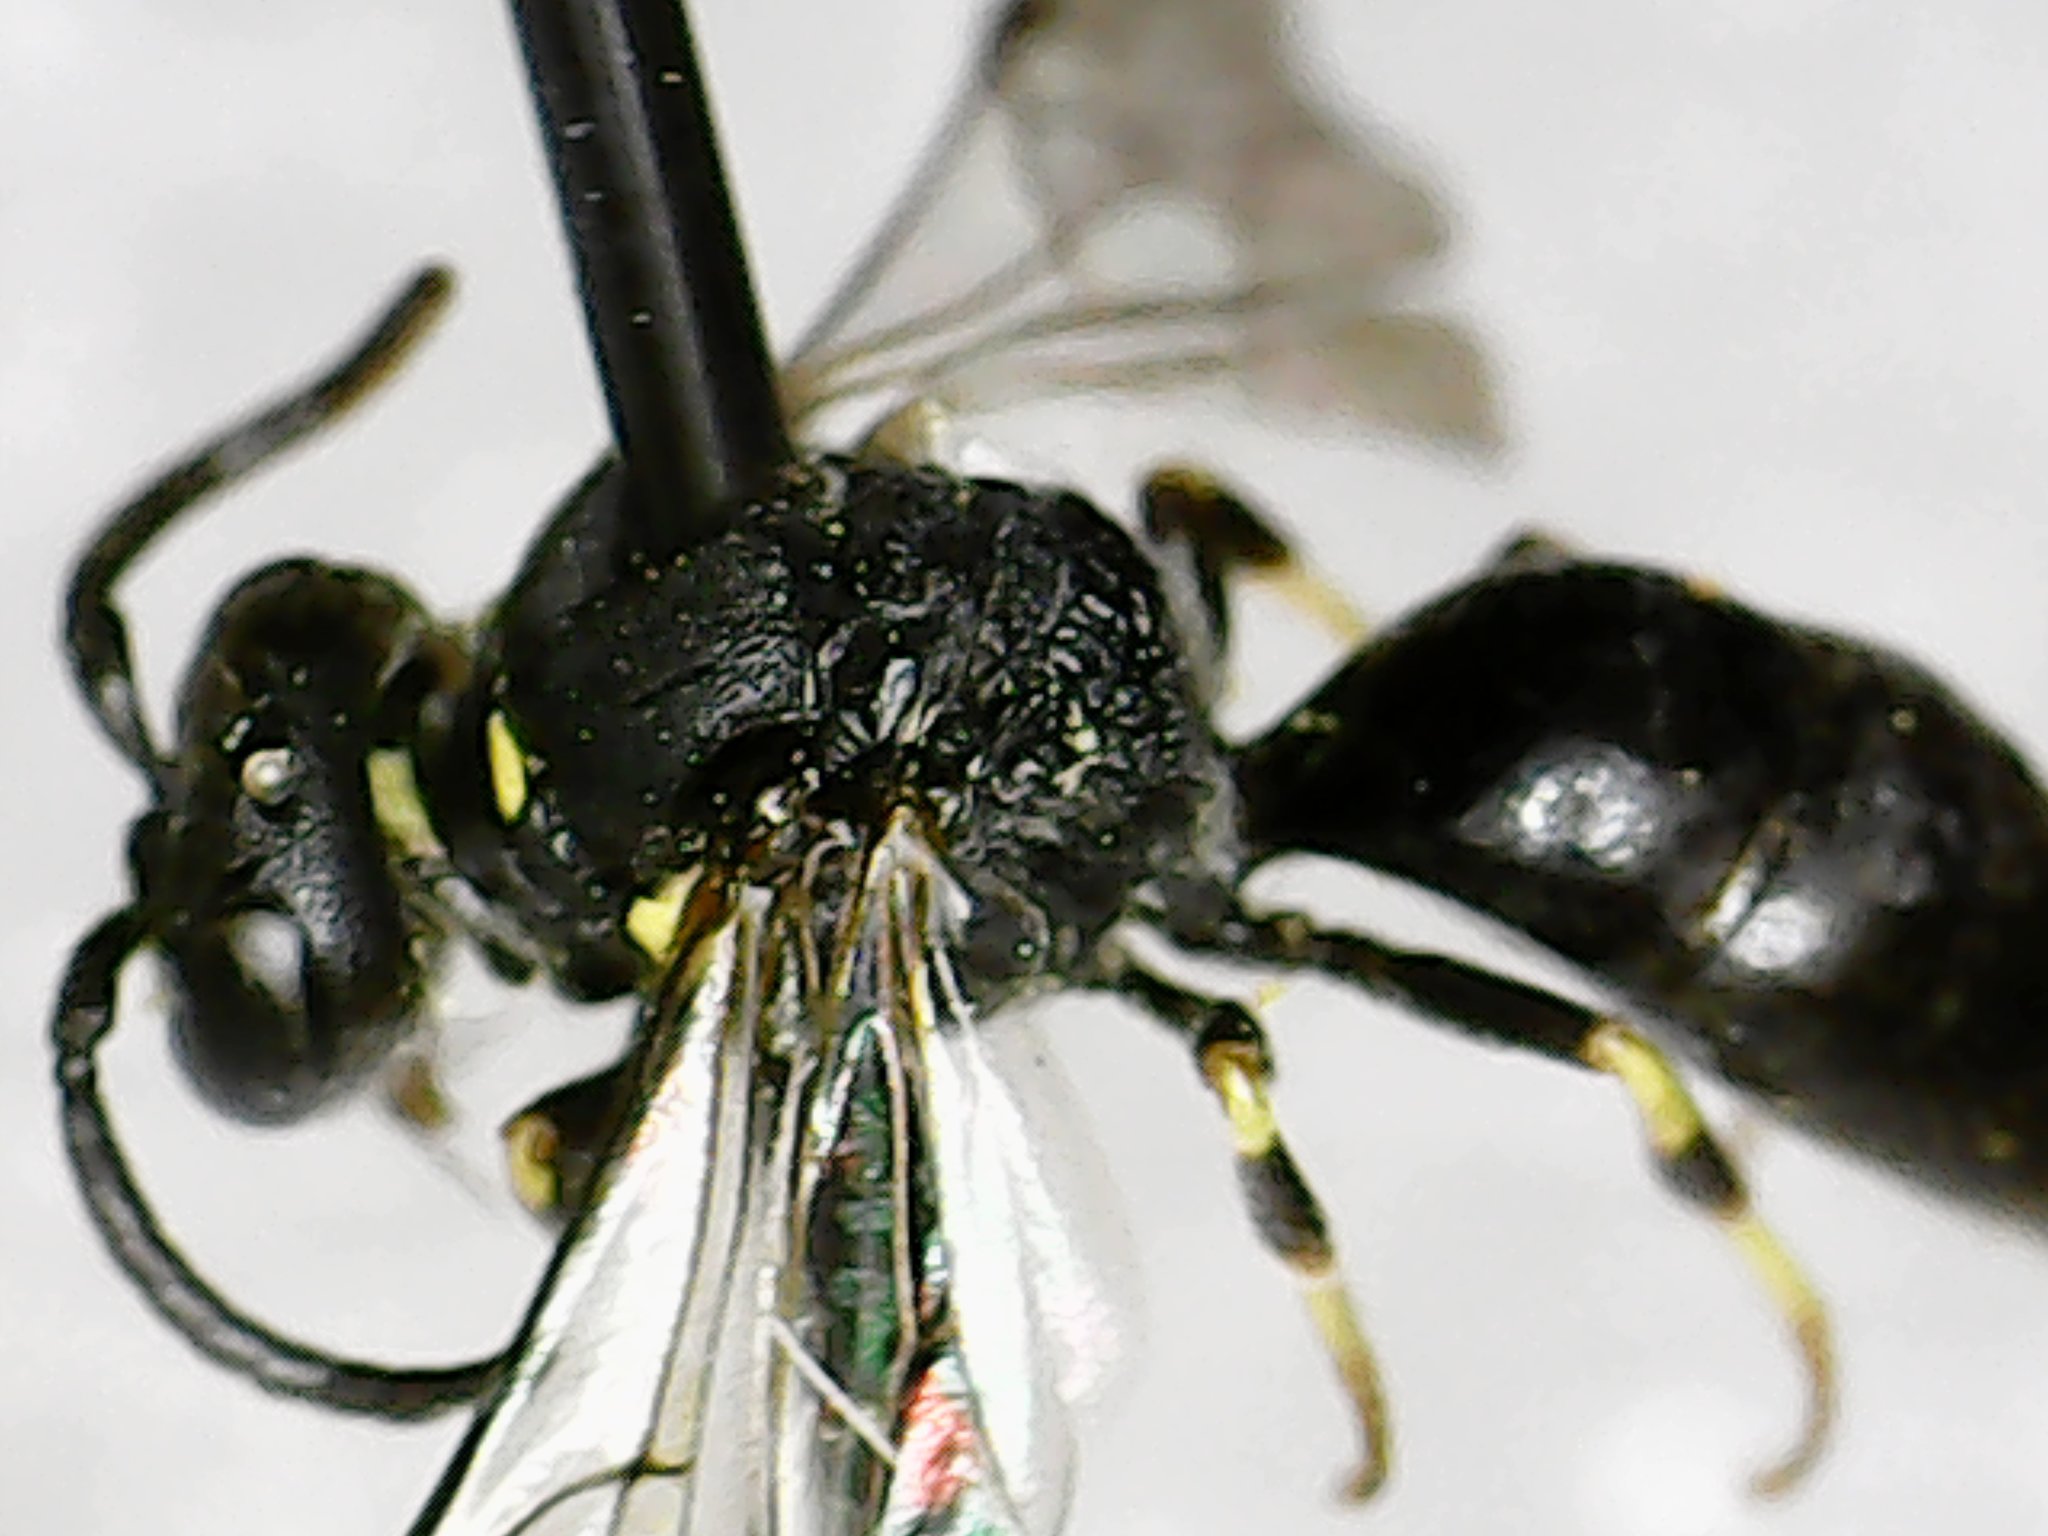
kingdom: Animalia
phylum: Arthropoda
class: Insecta
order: Hymenoptera
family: Colletidae
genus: Hylaeus
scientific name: Hylaeus modestus
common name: Yellow-faced bee
